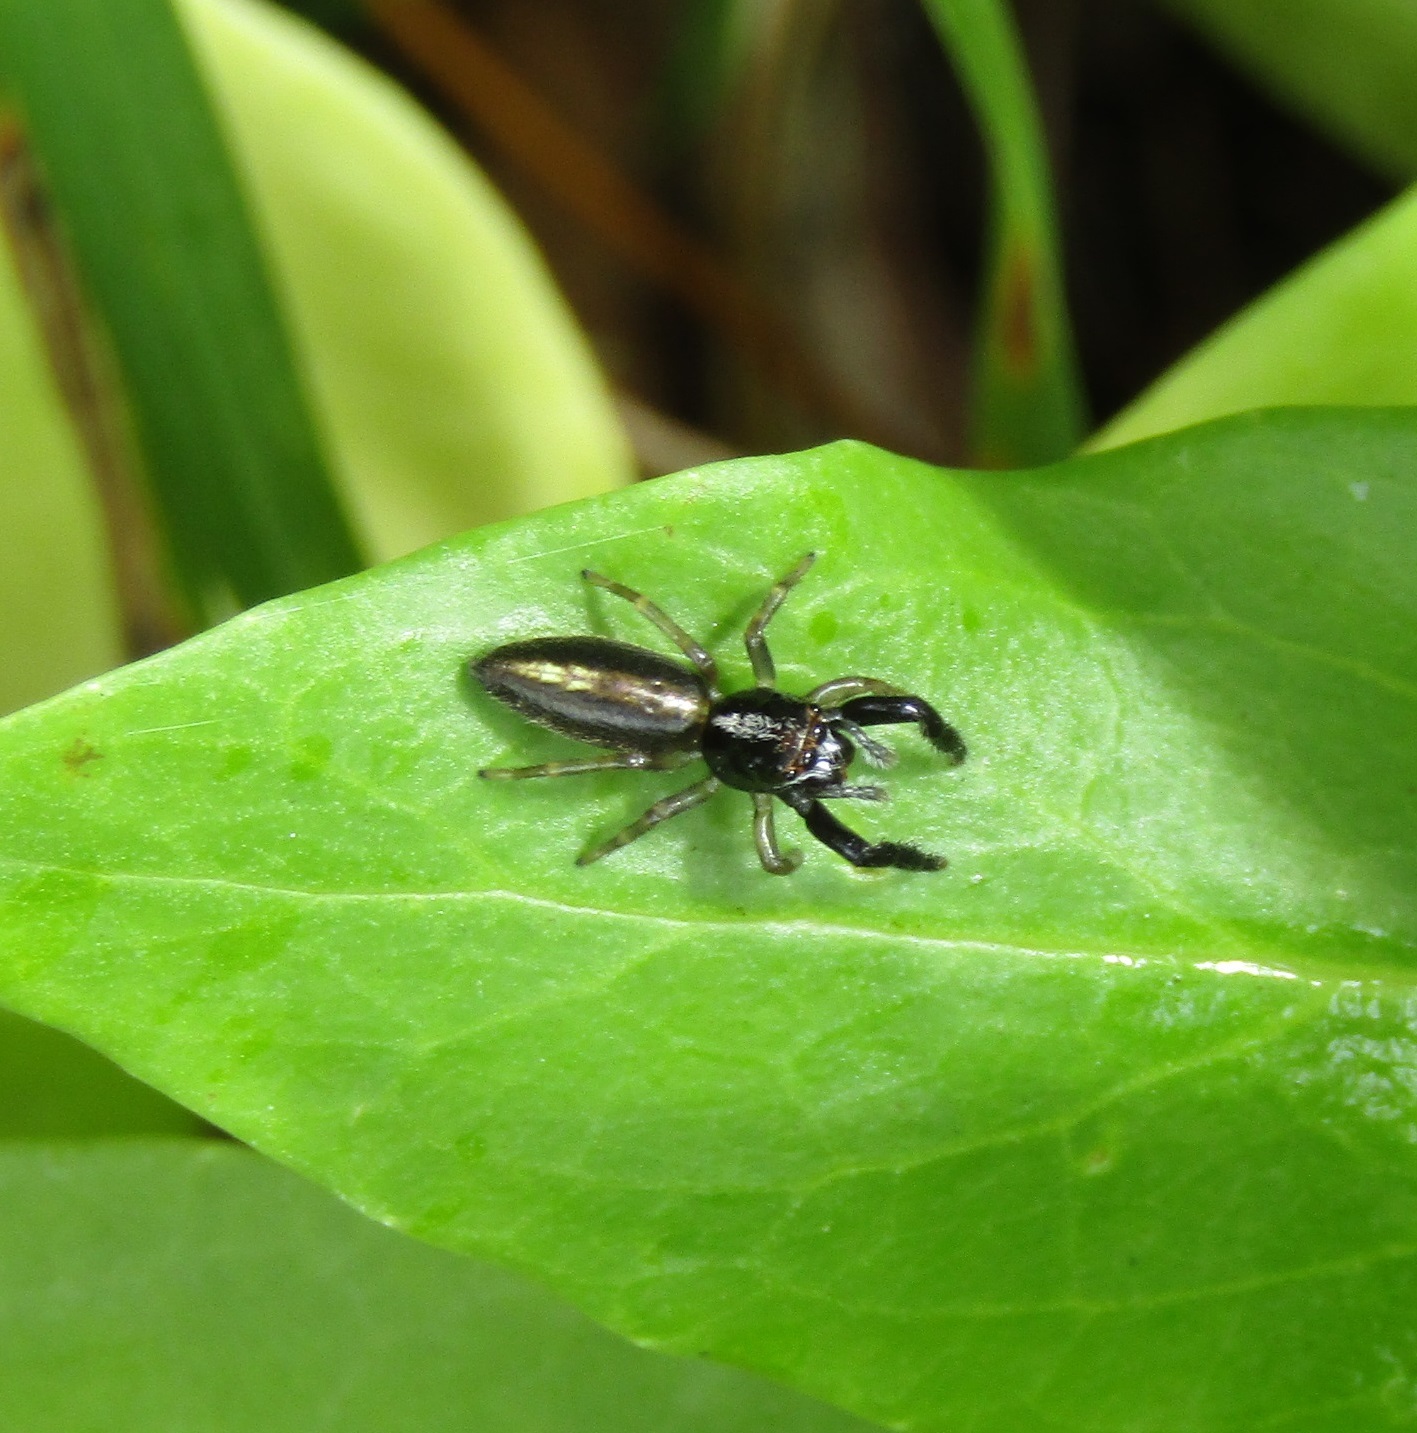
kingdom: Animalia
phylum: Arthropoda
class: Arachnida
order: Araneae
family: Salticidae
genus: Trite
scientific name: Trite planiceps
